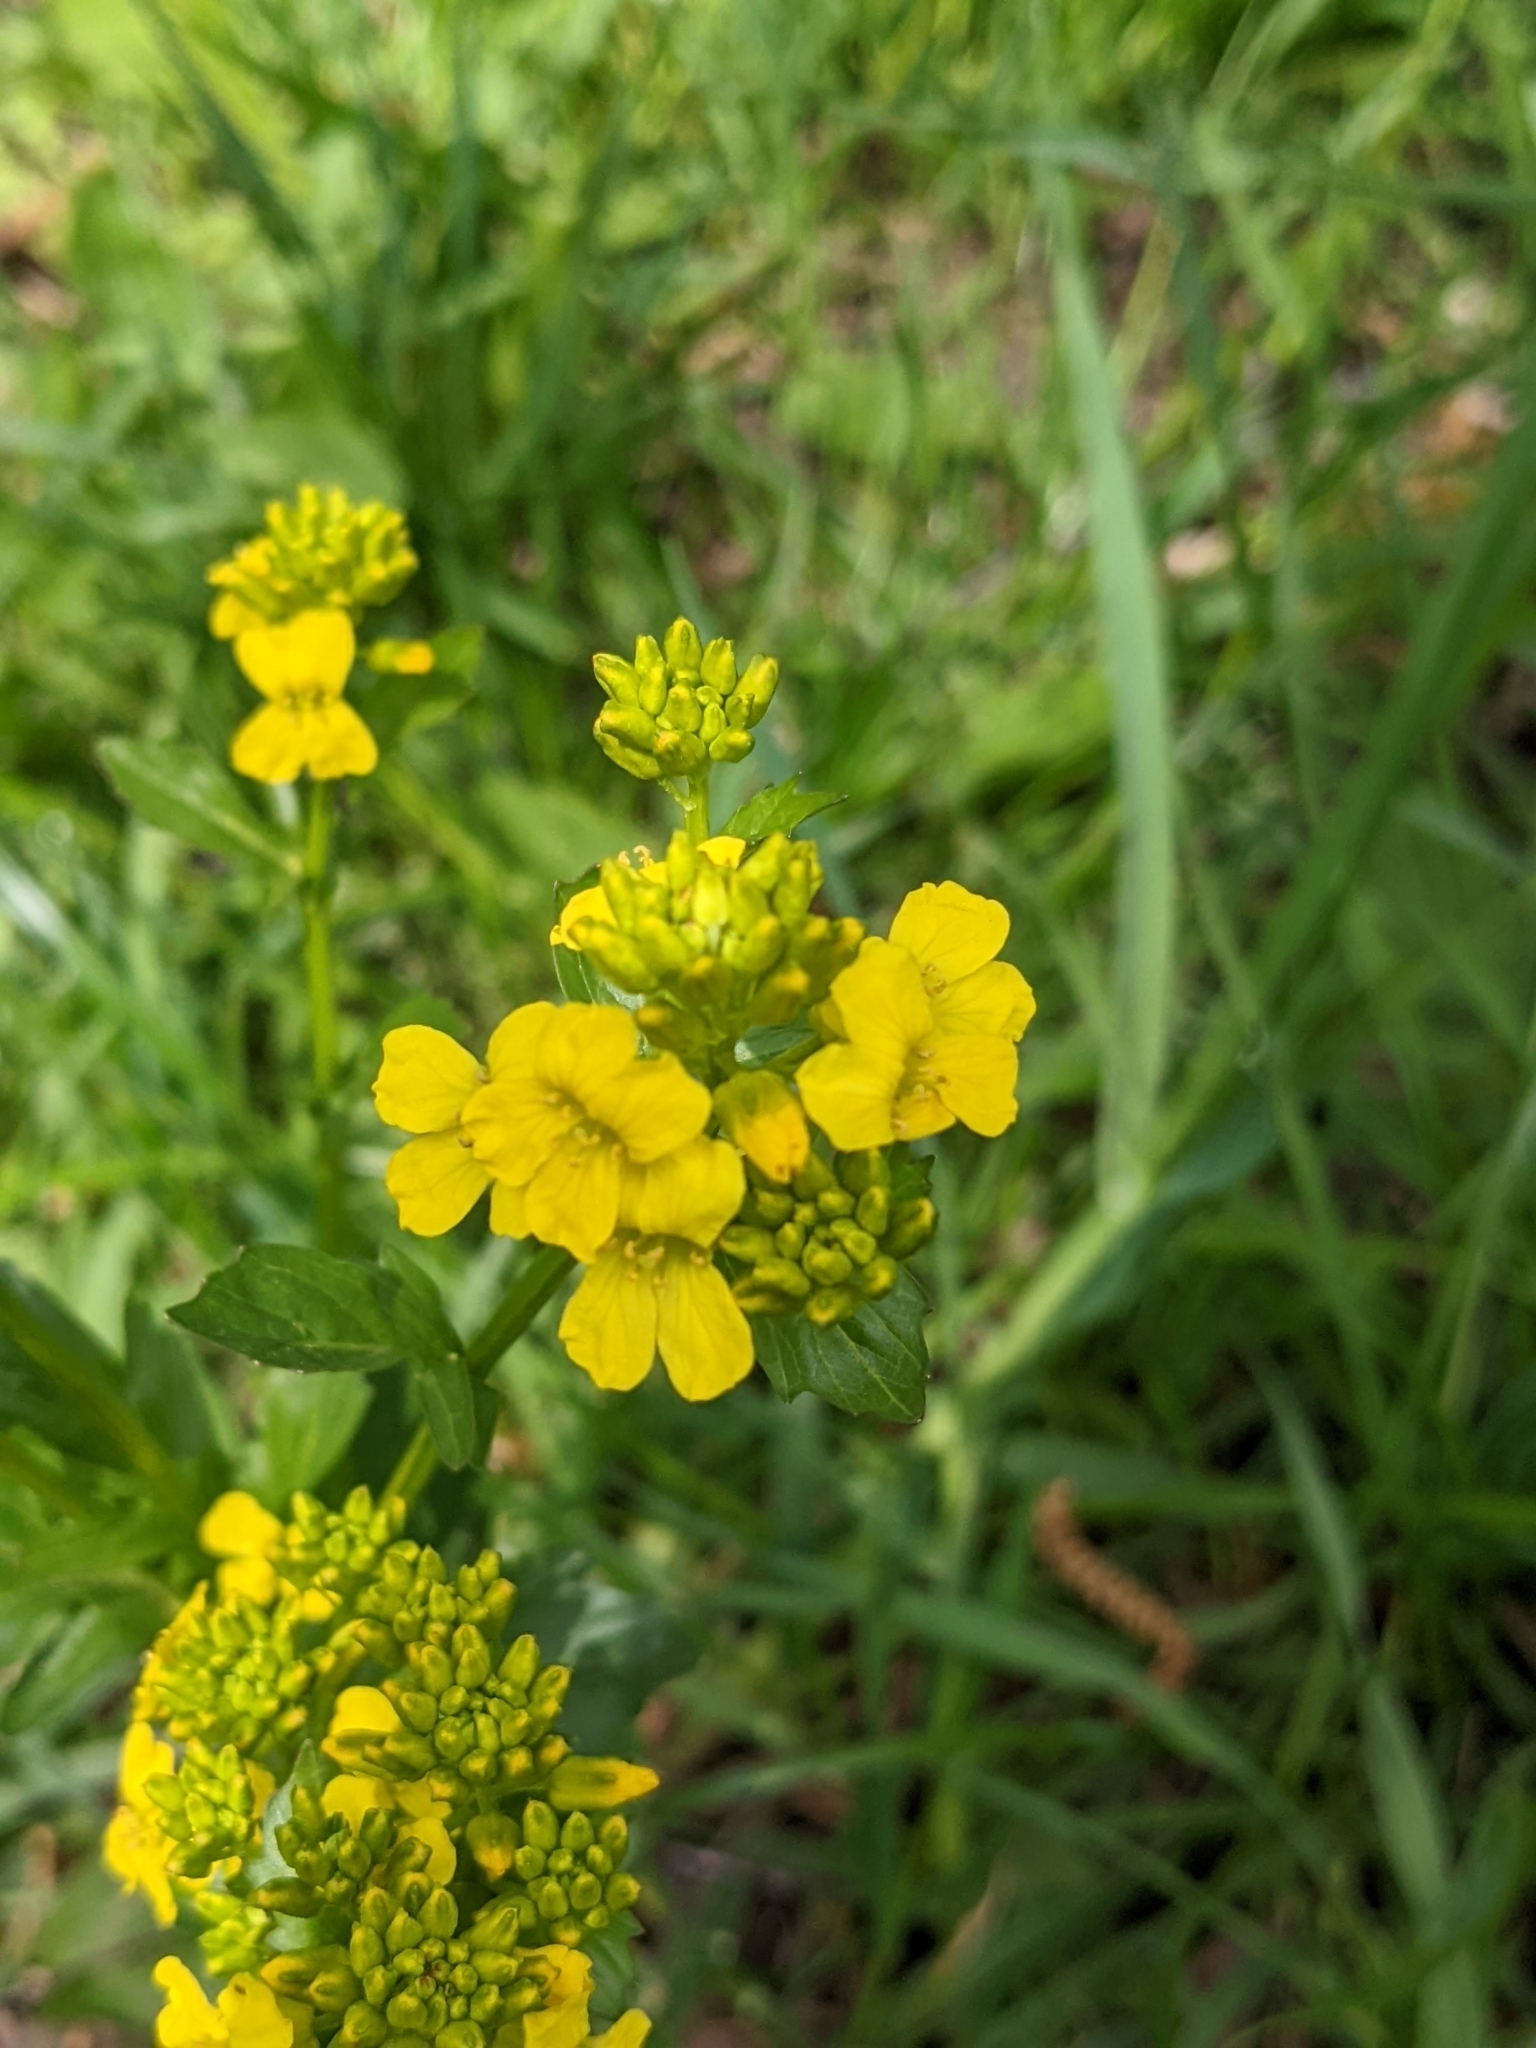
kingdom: Plantae
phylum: Tracheophyta
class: Magnoliopsida
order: Brassicales
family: Brassicaceae
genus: Barbarea
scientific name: Barbarea vulgaris
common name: Cressy-greens
